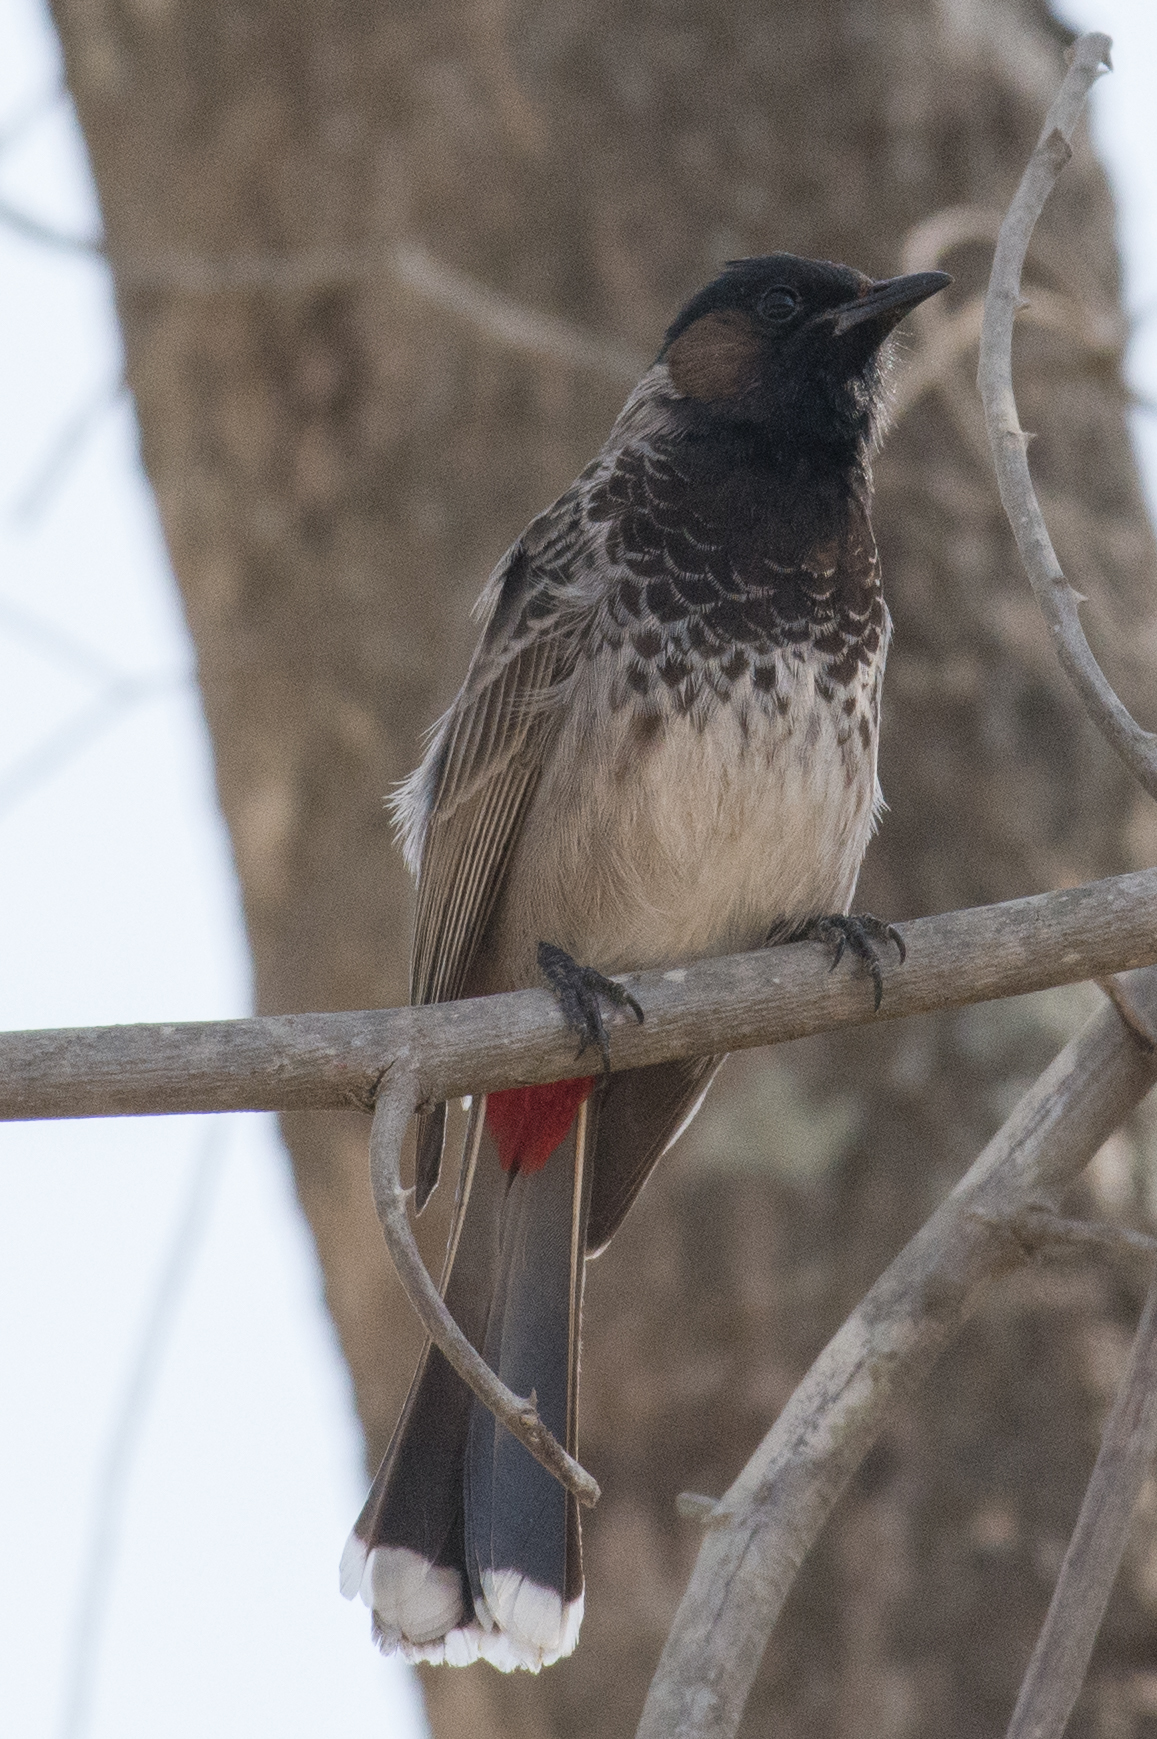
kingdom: Animalia
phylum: Chordata
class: Aves
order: Passeriformes
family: Pycnonotidae
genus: Pycnonotus
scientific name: Pycnonotus cafer
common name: Red-vented bulbul
